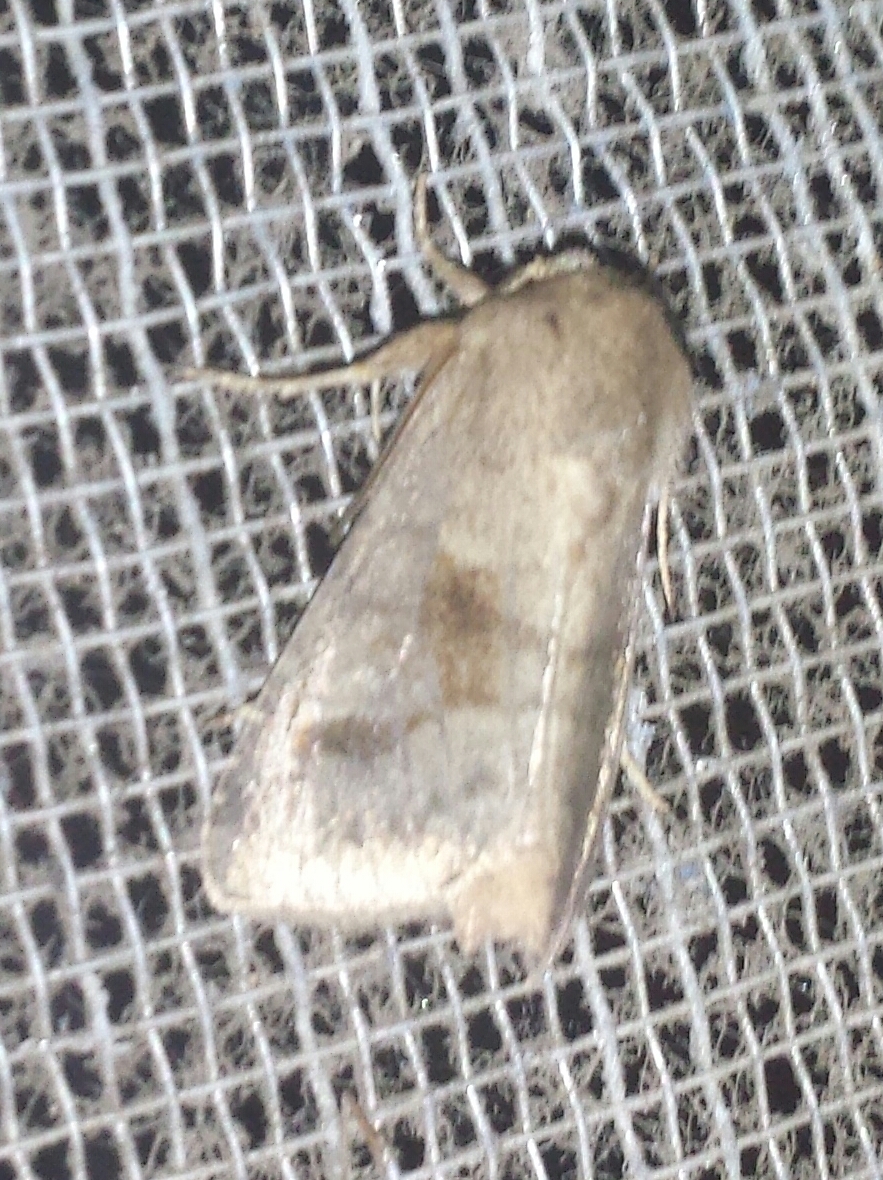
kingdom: Animalia
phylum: Arthropoda
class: Insecta
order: Lepidoptera
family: Noctuidae
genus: Nephelodes
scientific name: Nephelodes minians
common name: Bronzed cutworm
